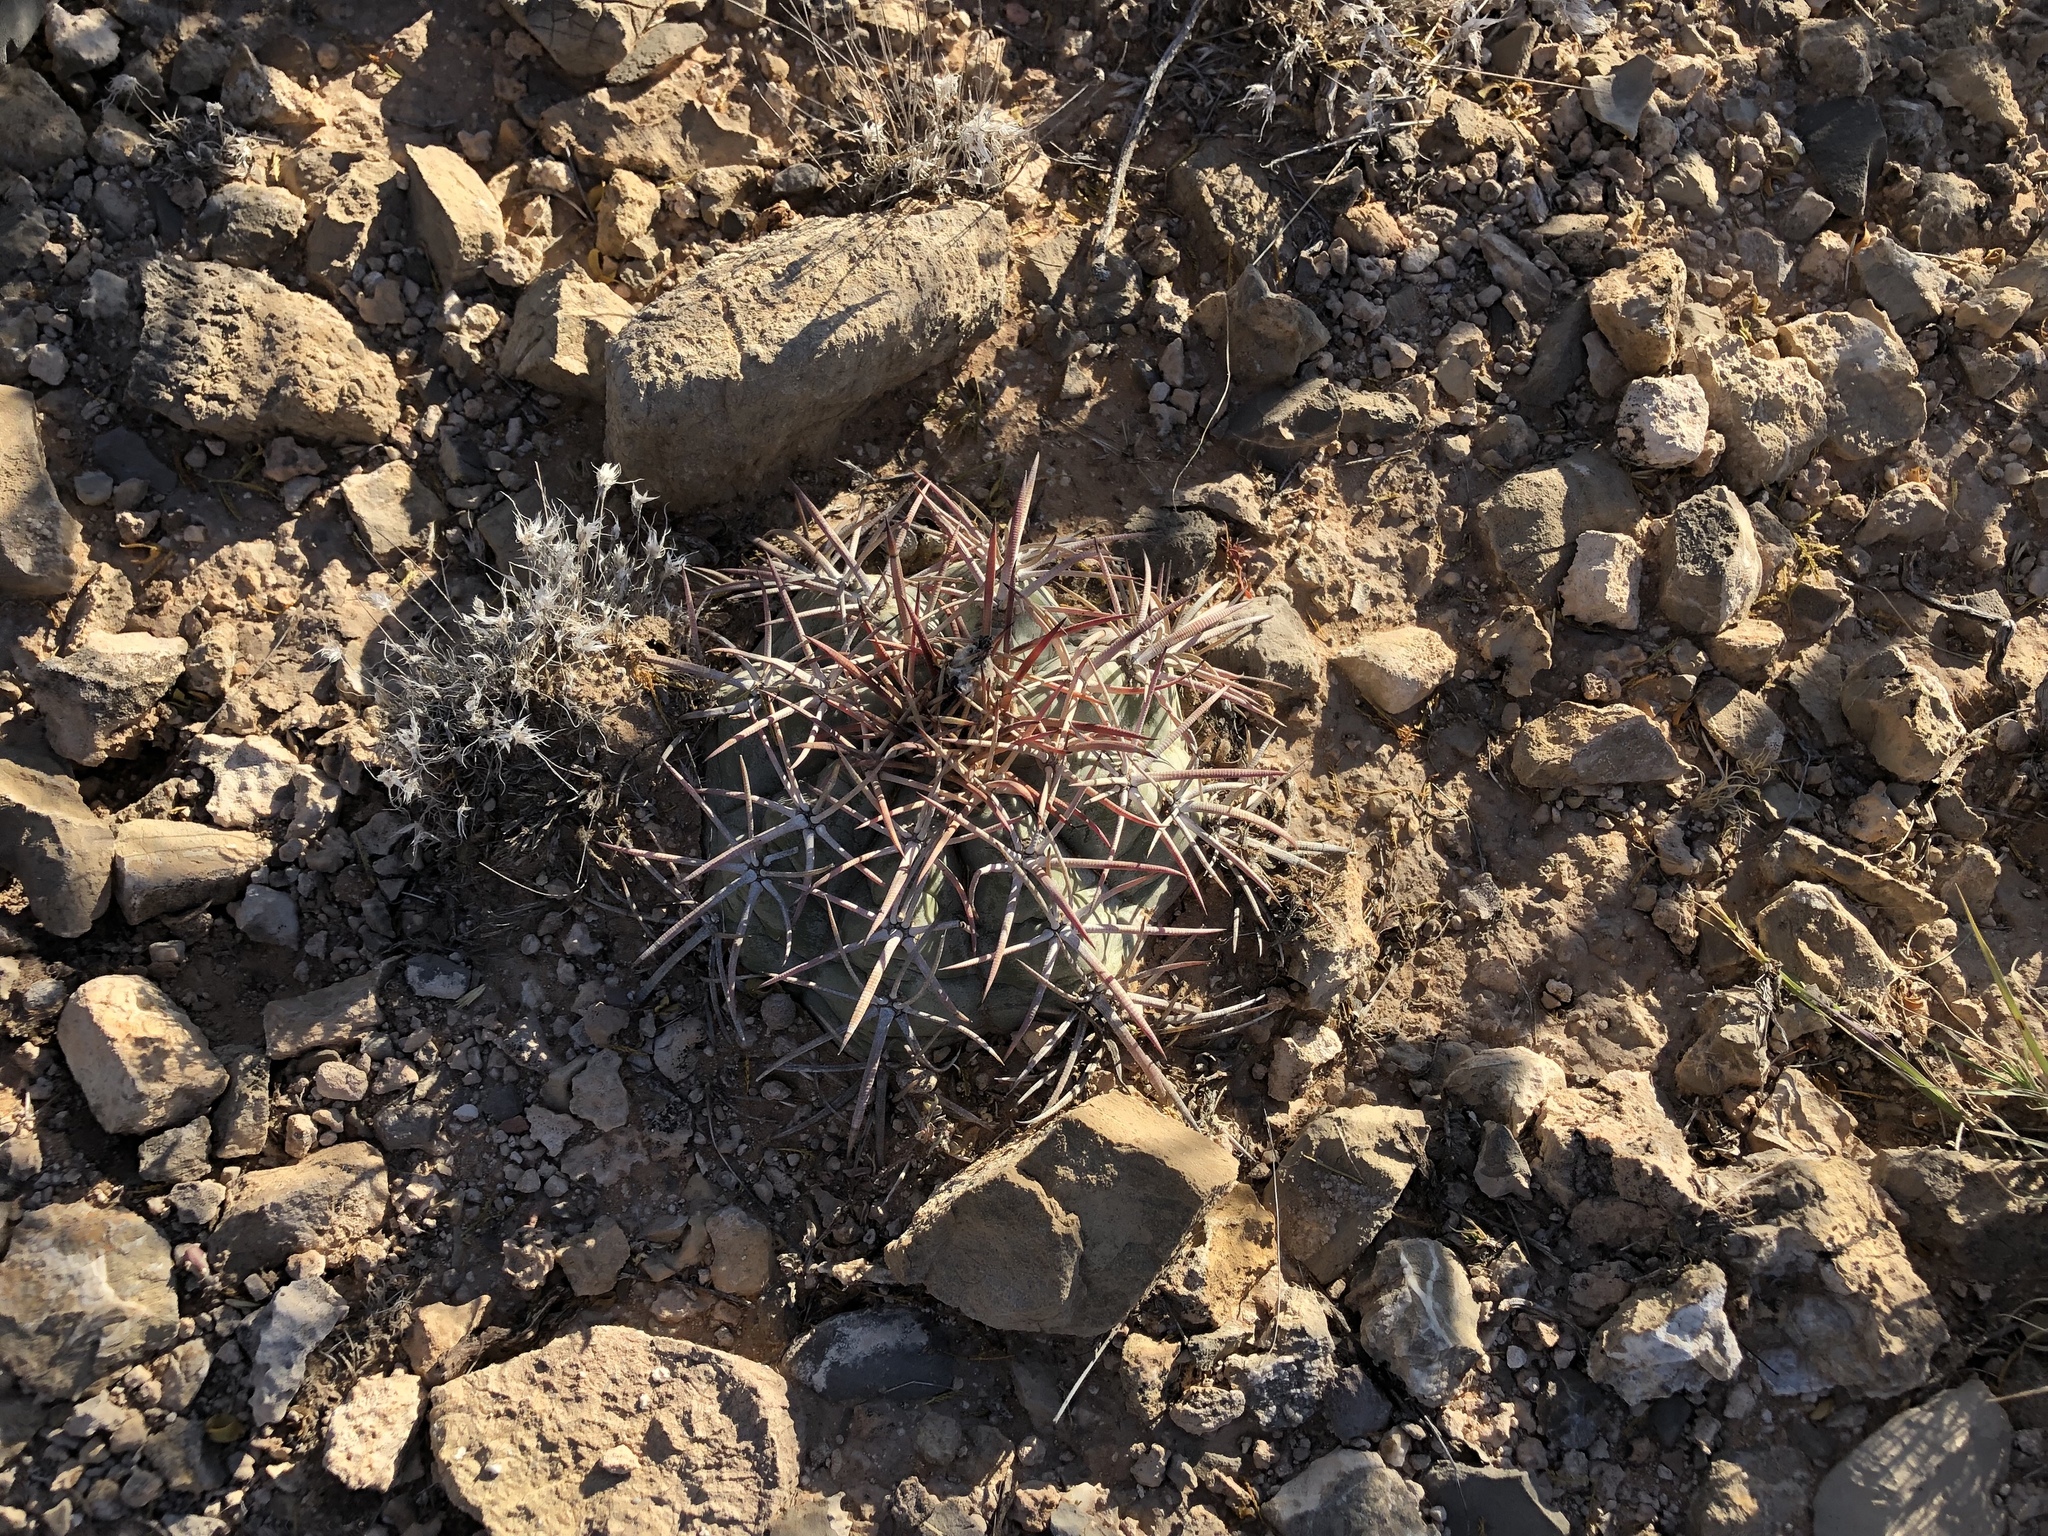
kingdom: Plantae
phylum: Tracheophyta
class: Magnoliopsida
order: Caryophyllales
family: Cactaceae
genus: Echinocactus
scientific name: Echinocactus horizonthalonius
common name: Devilshead
